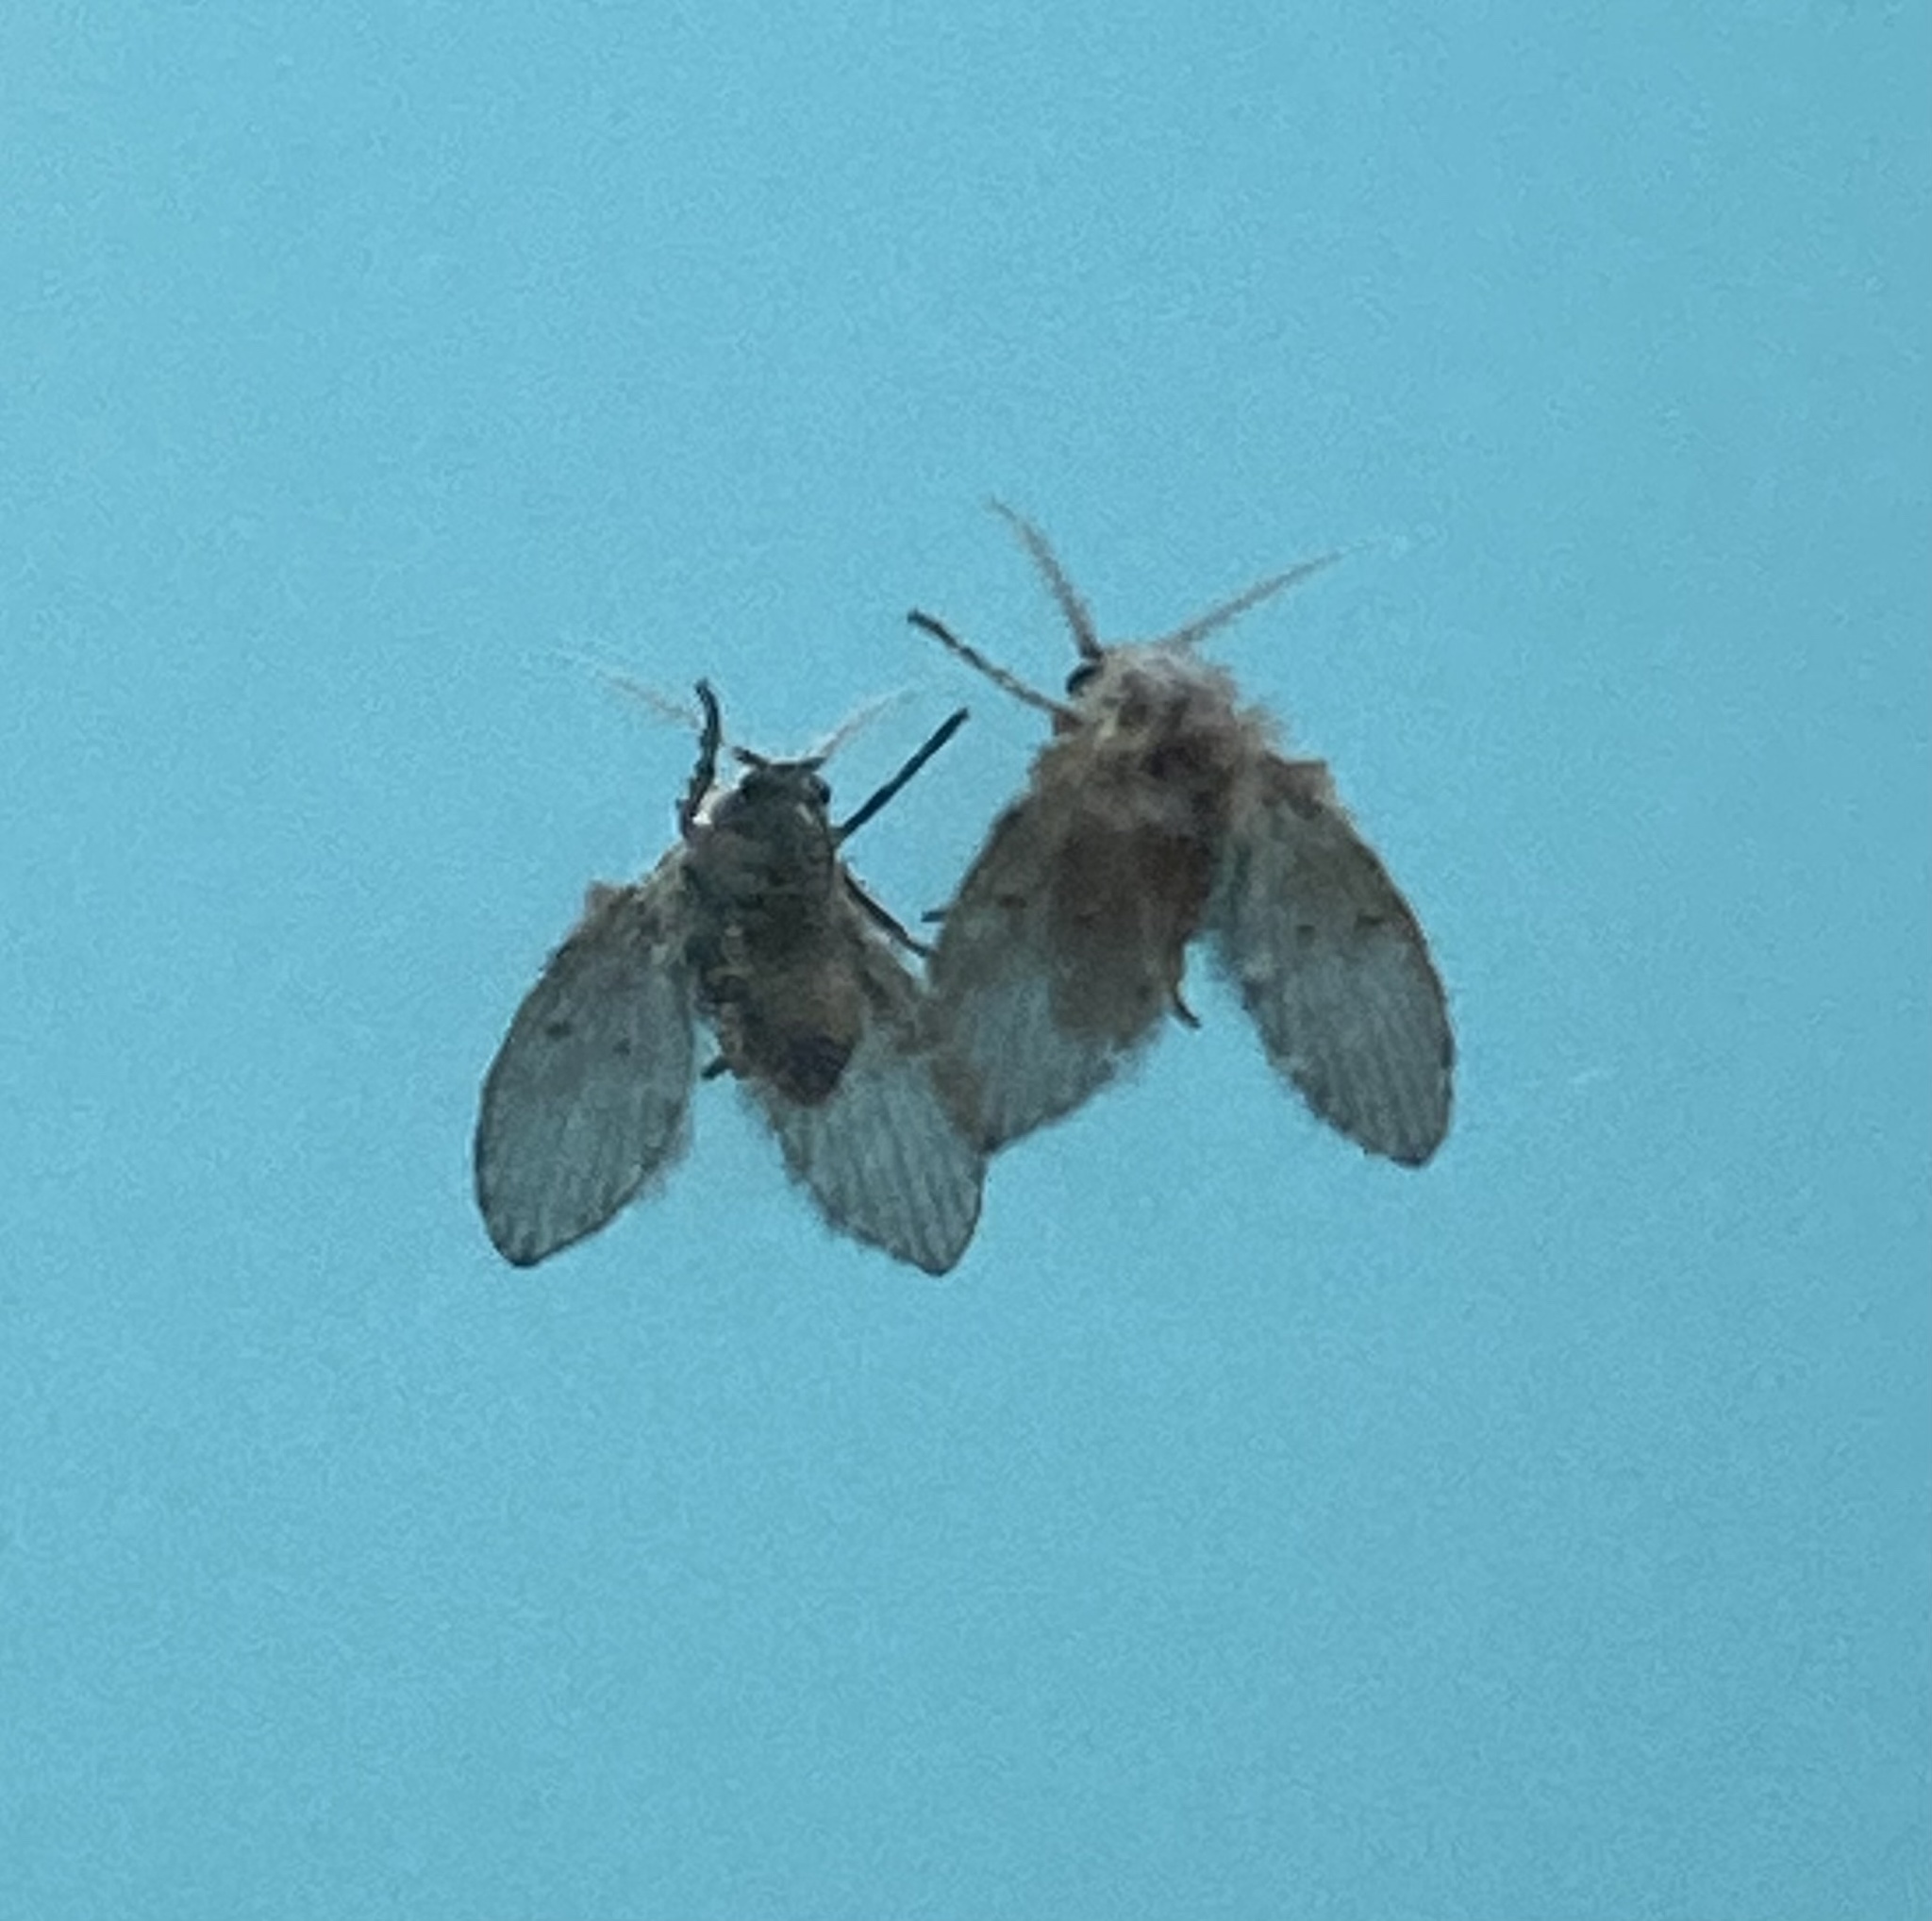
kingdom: Animalia
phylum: Arthropoda
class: Insecta
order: Diptera
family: Psychodidae
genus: Clogmia
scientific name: Clogmia albipunctatus
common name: White-spotted moth fly
